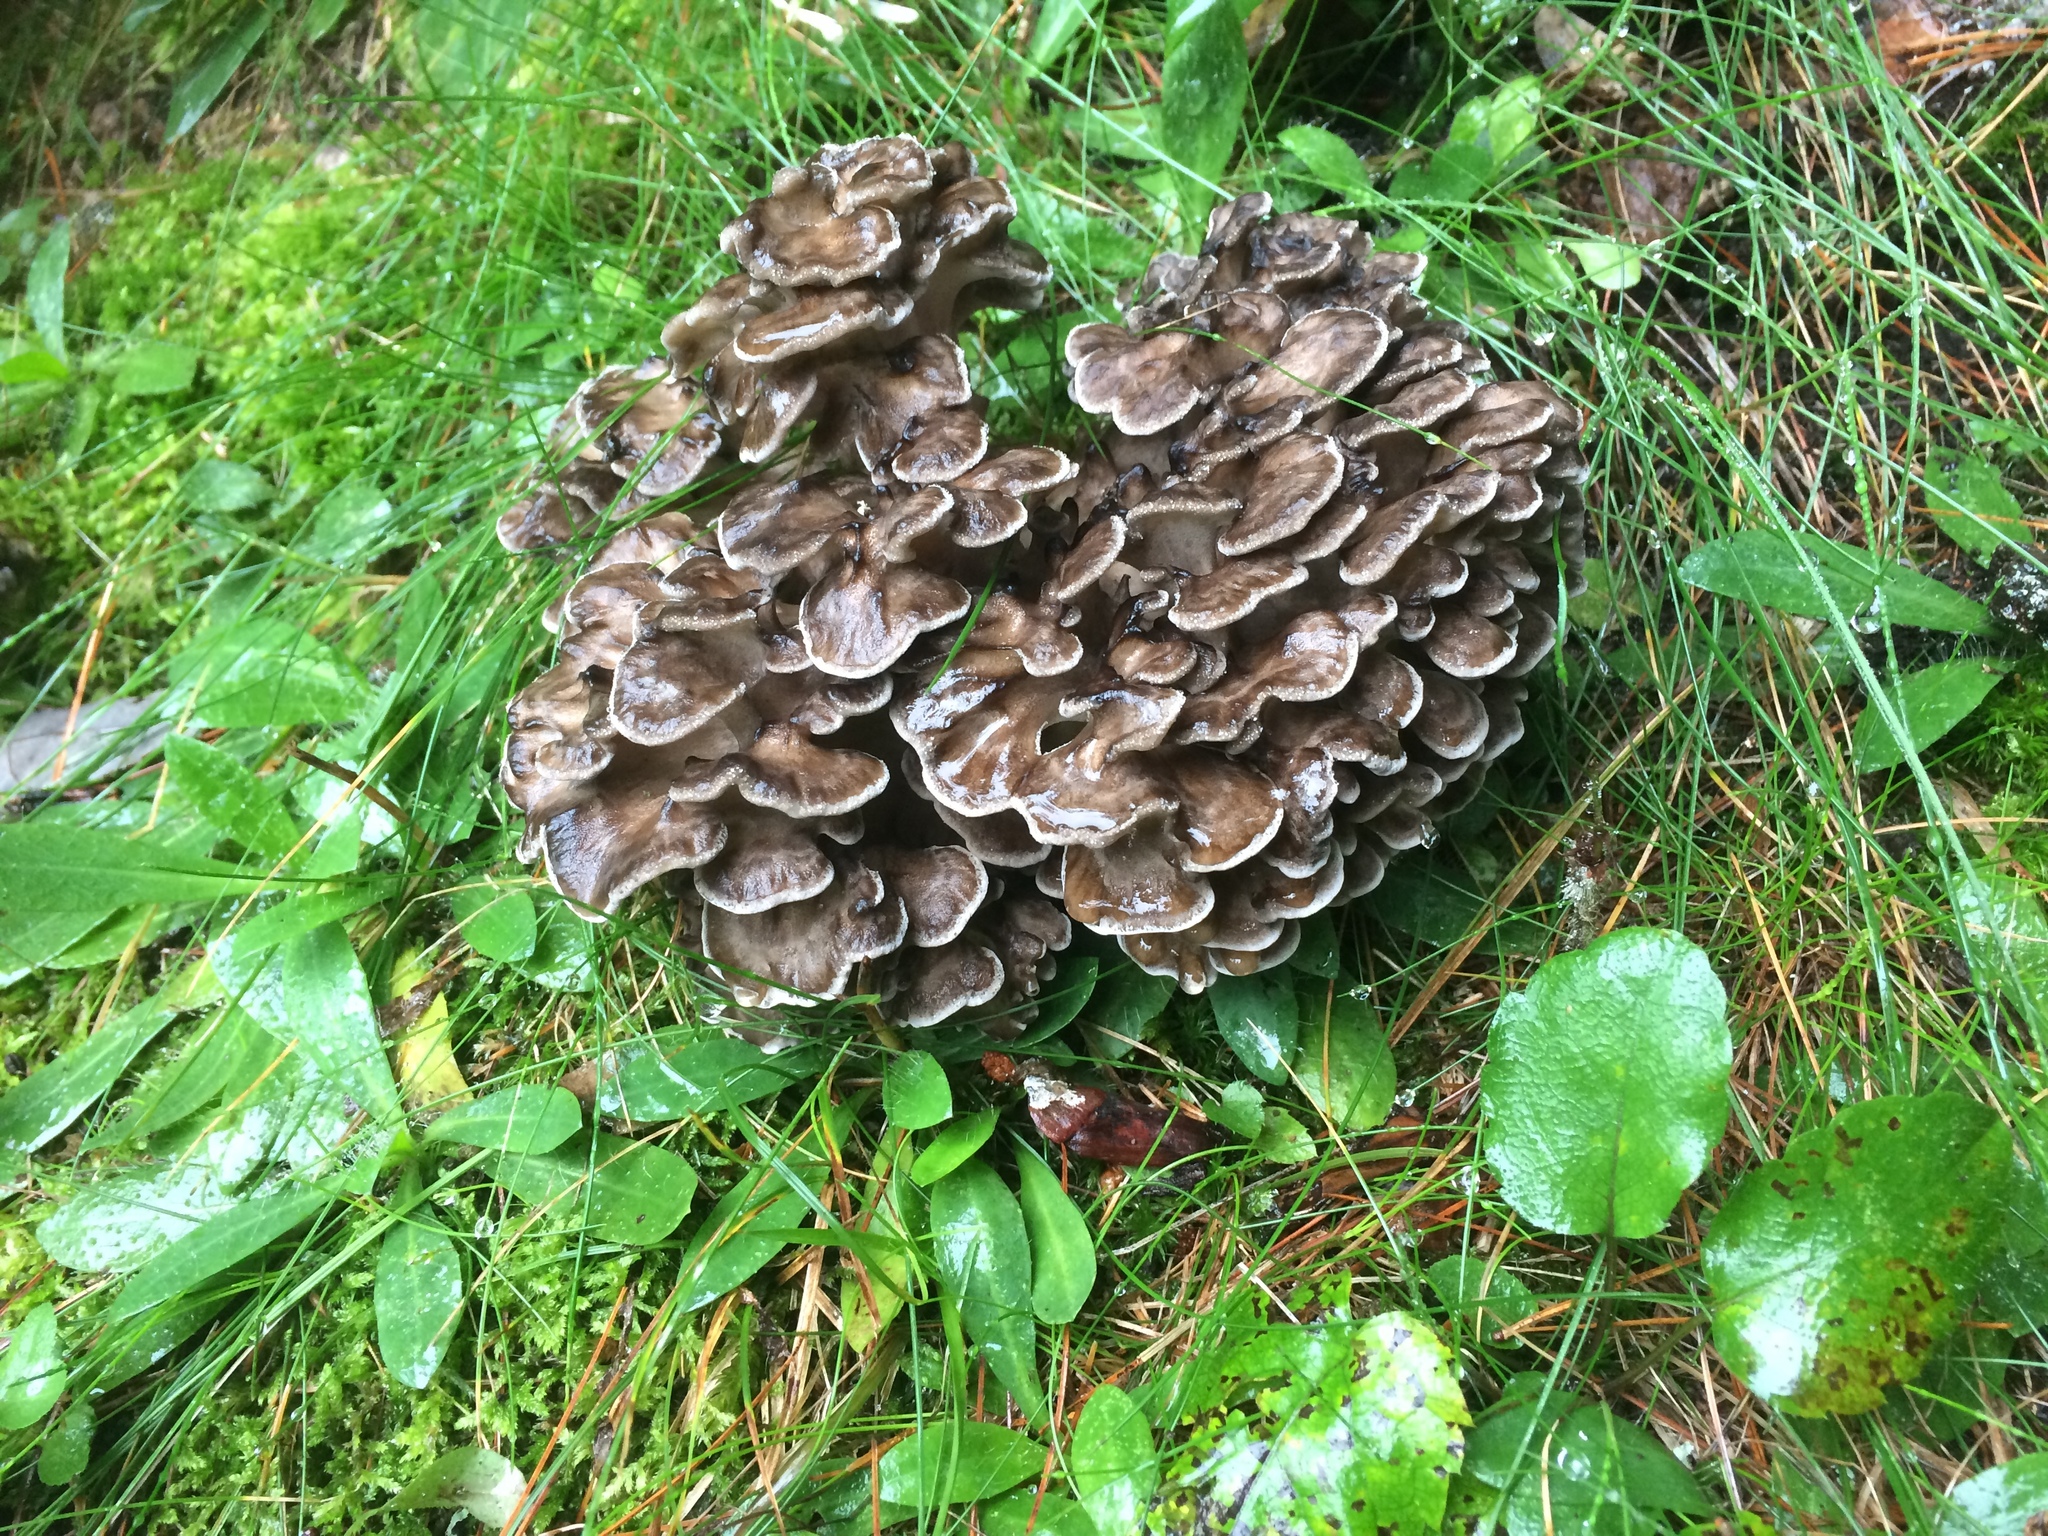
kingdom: Fungi
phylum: Basidiomycota
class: Agaricomycetes
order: Polyporales
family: Grifolaceae
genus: Grifola
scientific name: Grifola frondosa
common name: Hen of the woods
